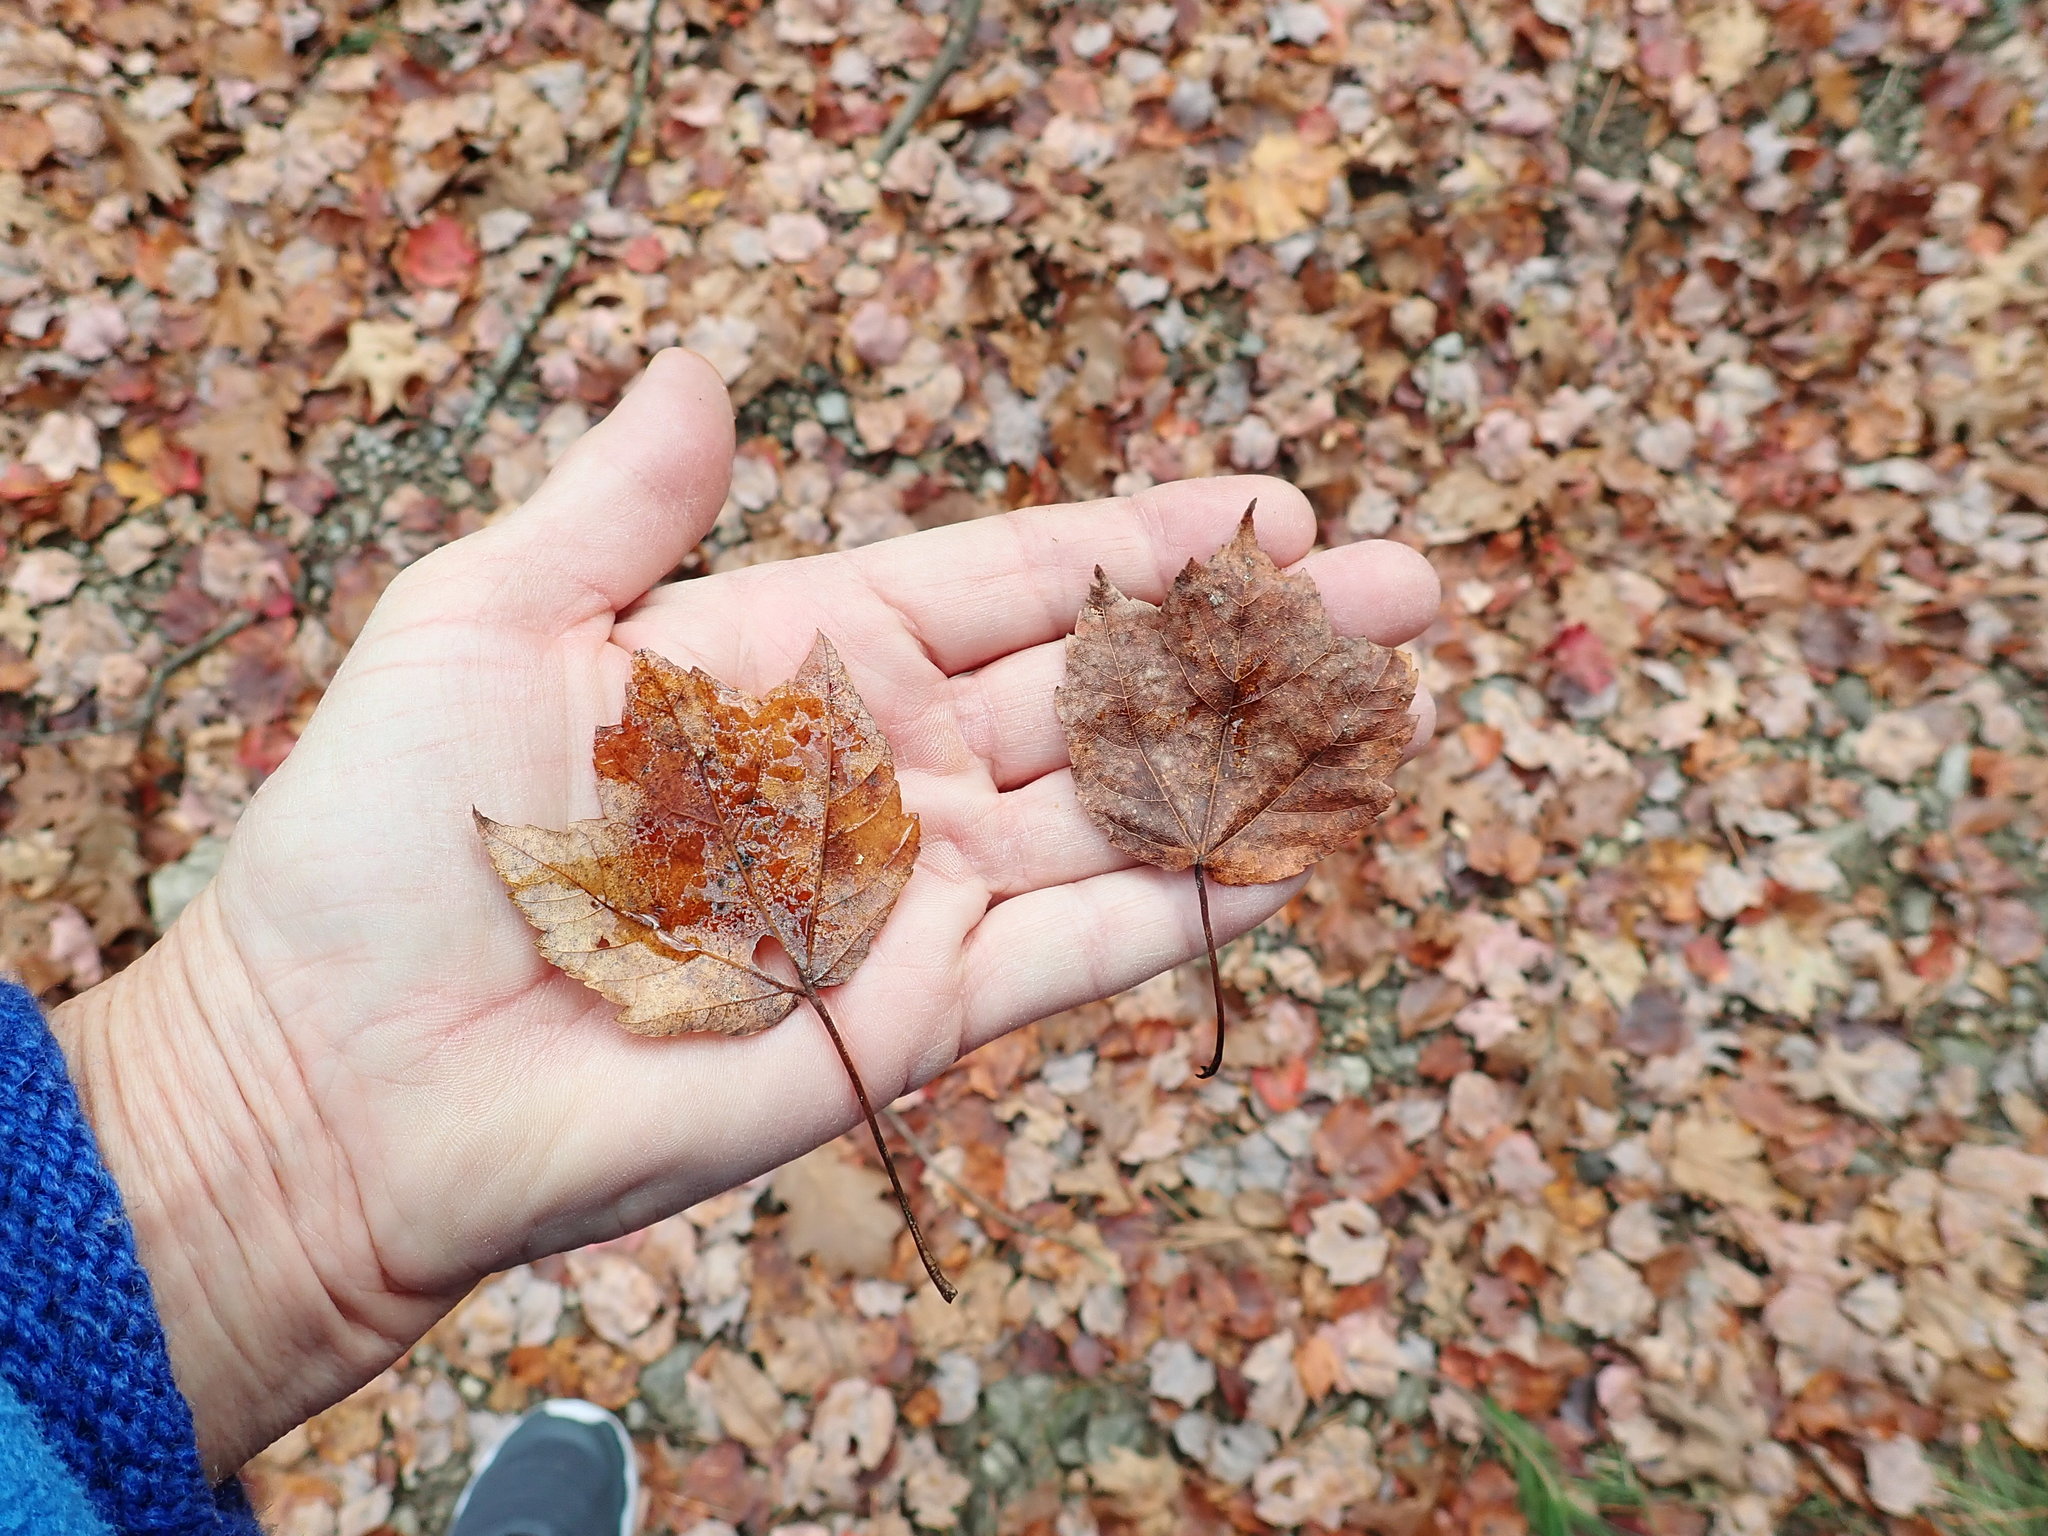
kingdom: Plantae
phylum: Tracheophyta
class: Magnoliopsida
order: Sapindales
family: Sapindaceae
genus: Acer
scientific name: Acer rubrum
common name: Red maple
